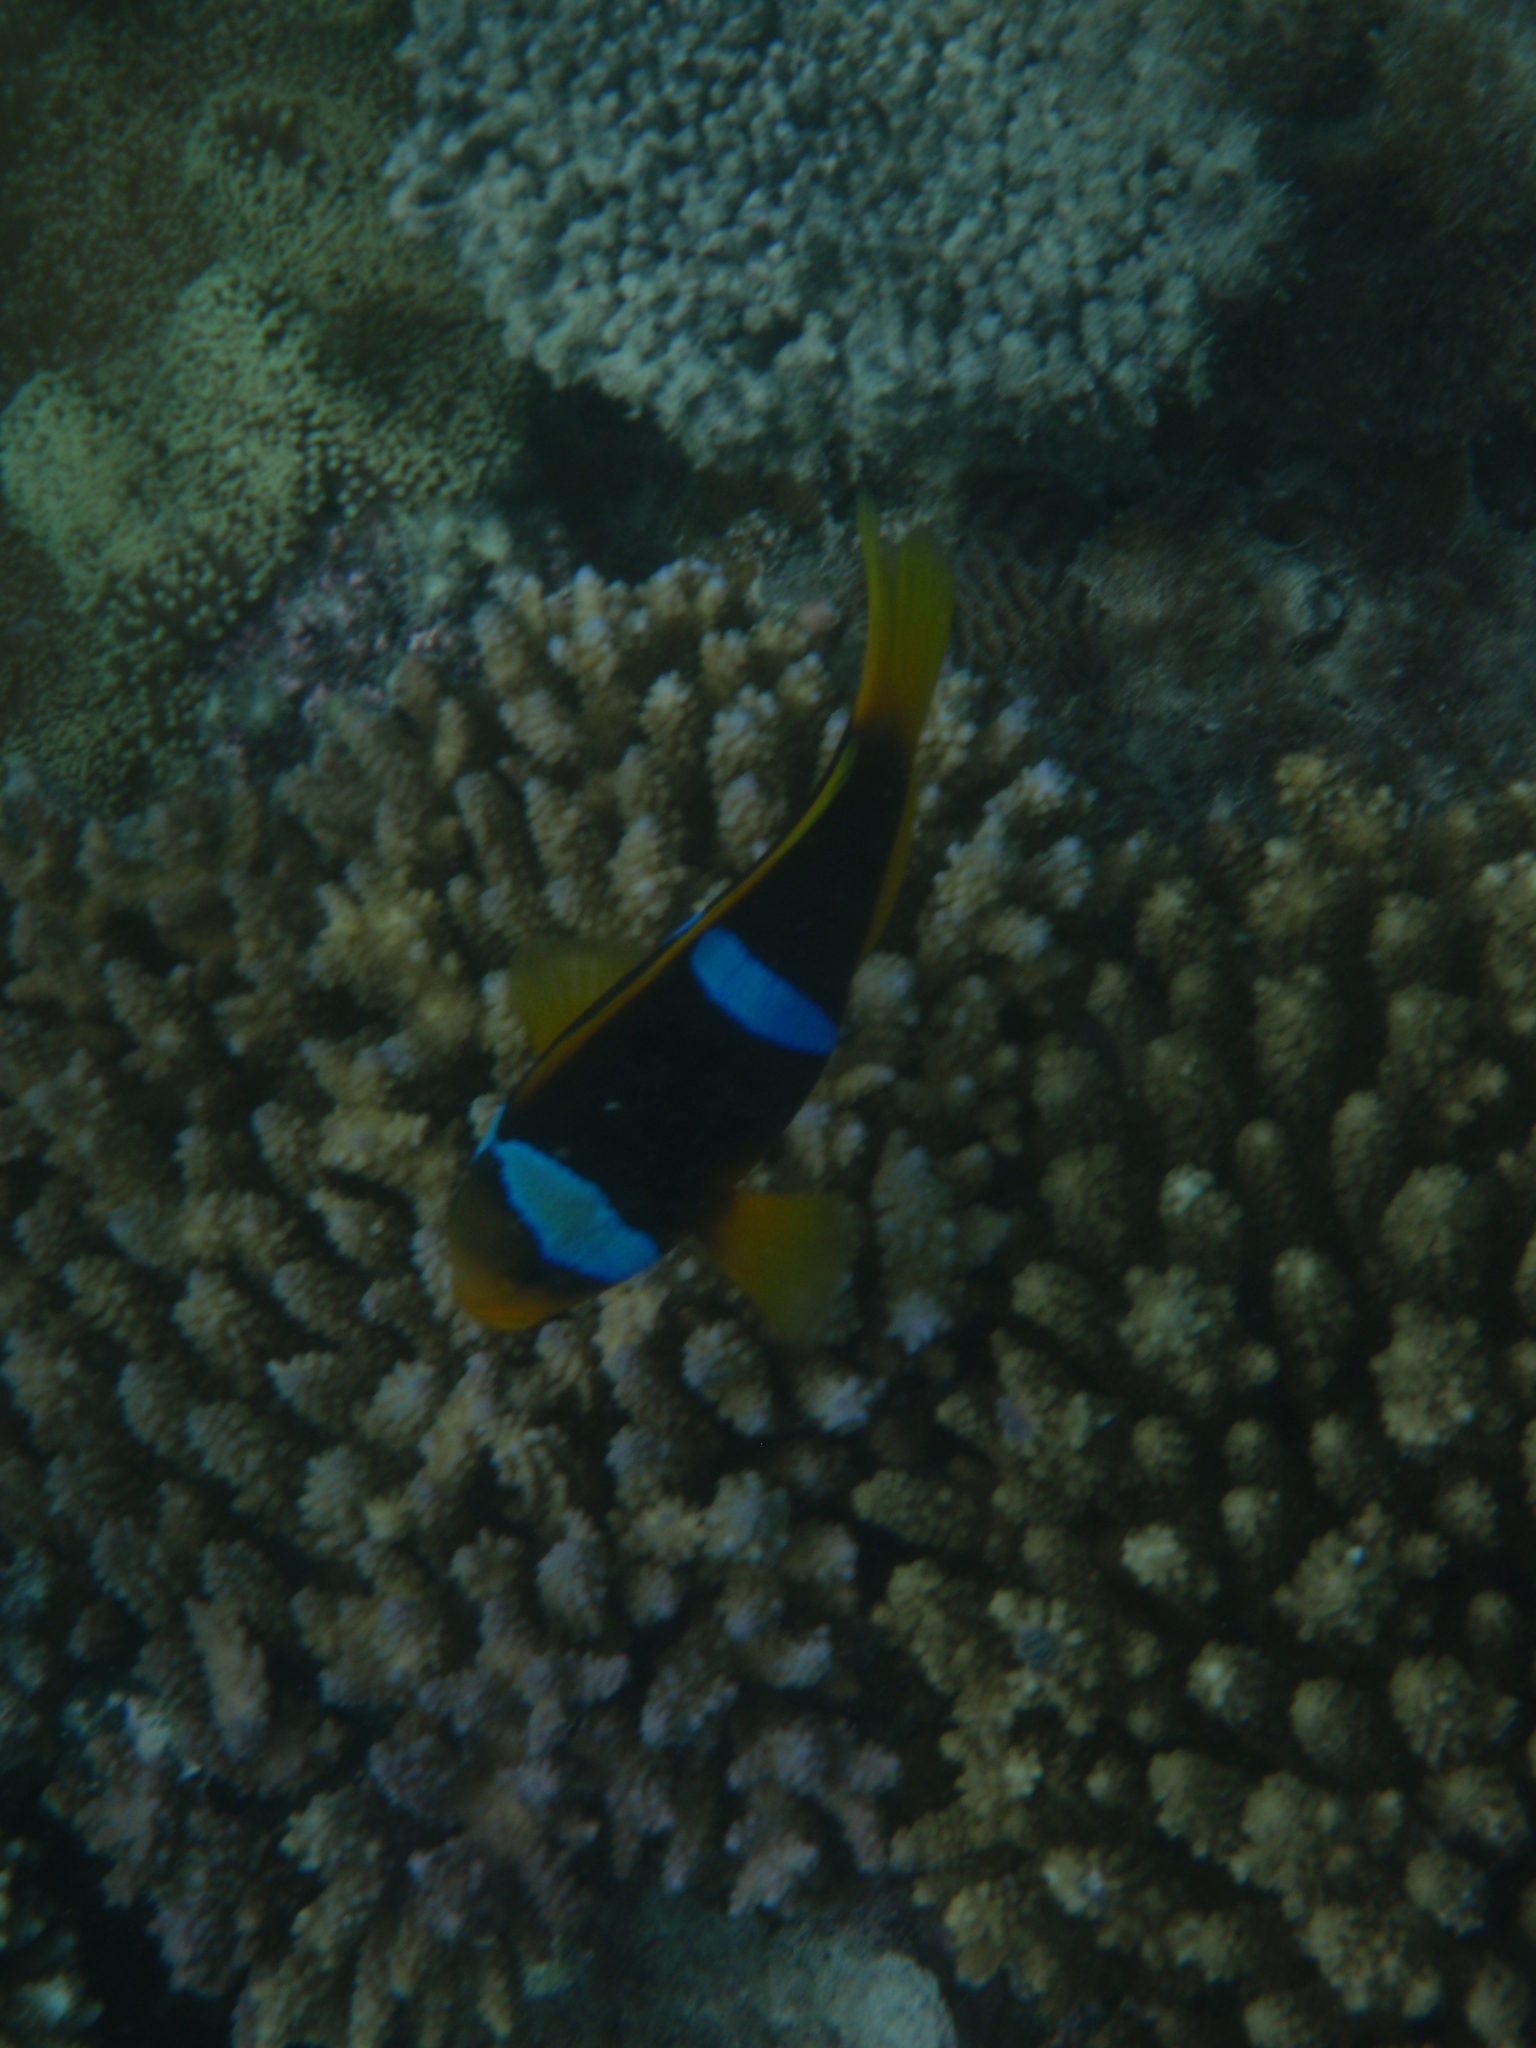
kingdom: Animalia
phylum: Chordata
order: Perciformes
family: Pomacentridae
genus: Amphiprion
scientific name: Amphiprion chrysopterus
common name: Orange-fin anemonefish
